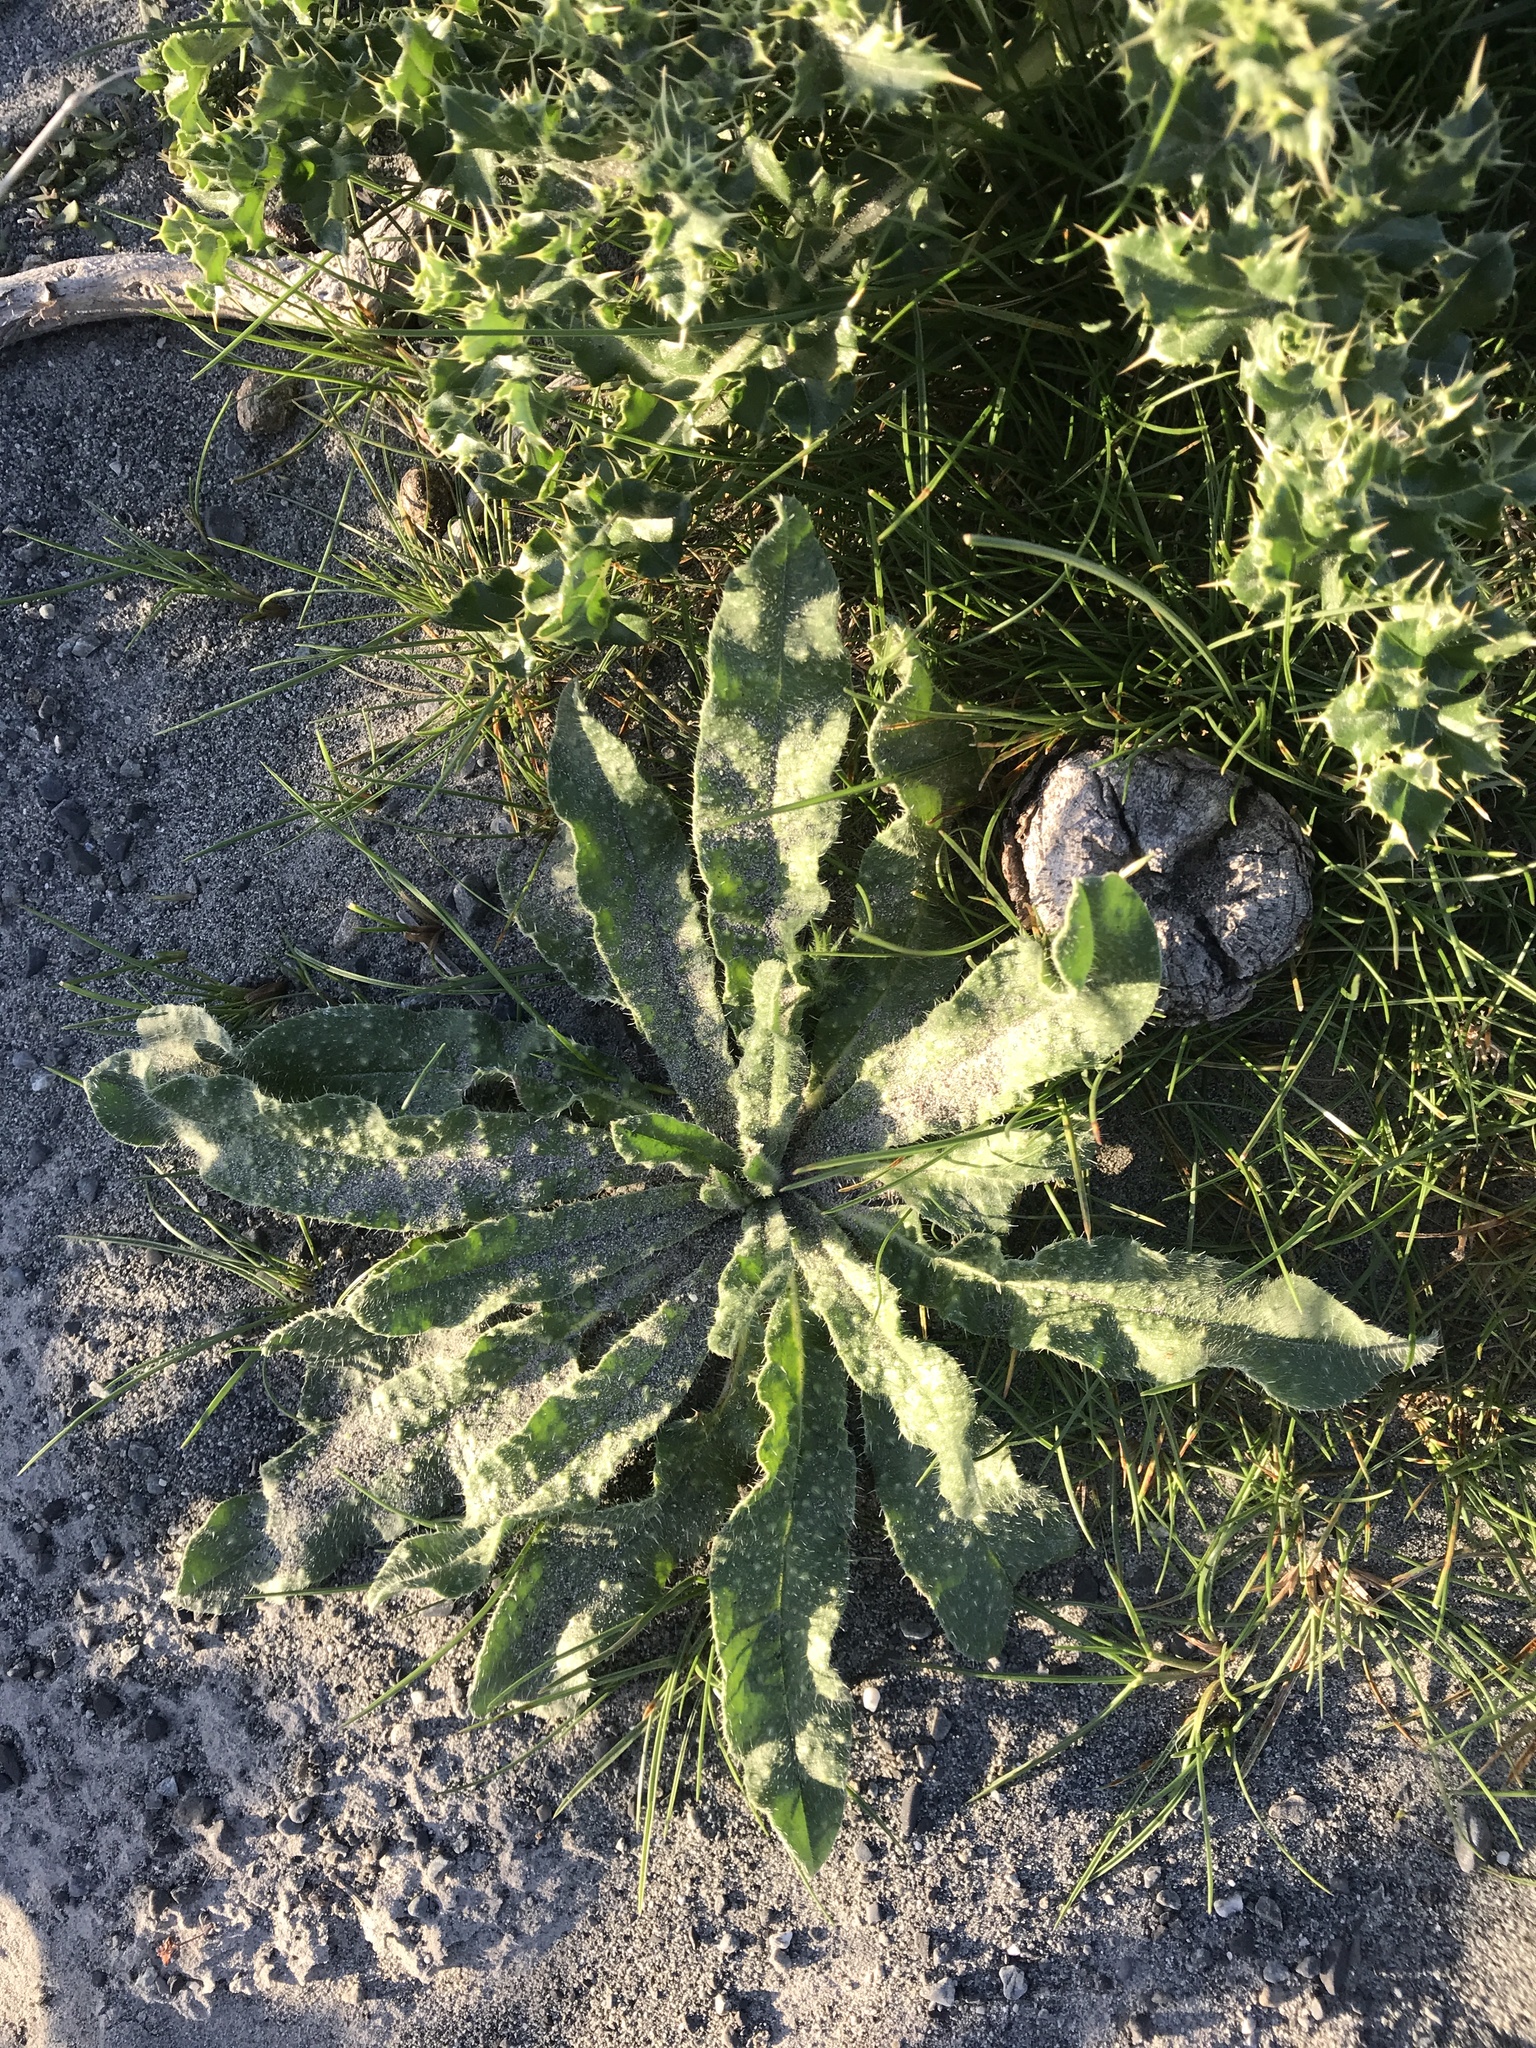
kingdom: Plantae
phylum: Tracheophyta
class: Magnoliopsida
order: Boraginales
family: Boraginaceae
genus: Echium
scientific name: Echium vulgare
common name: Common viper's bugloss
